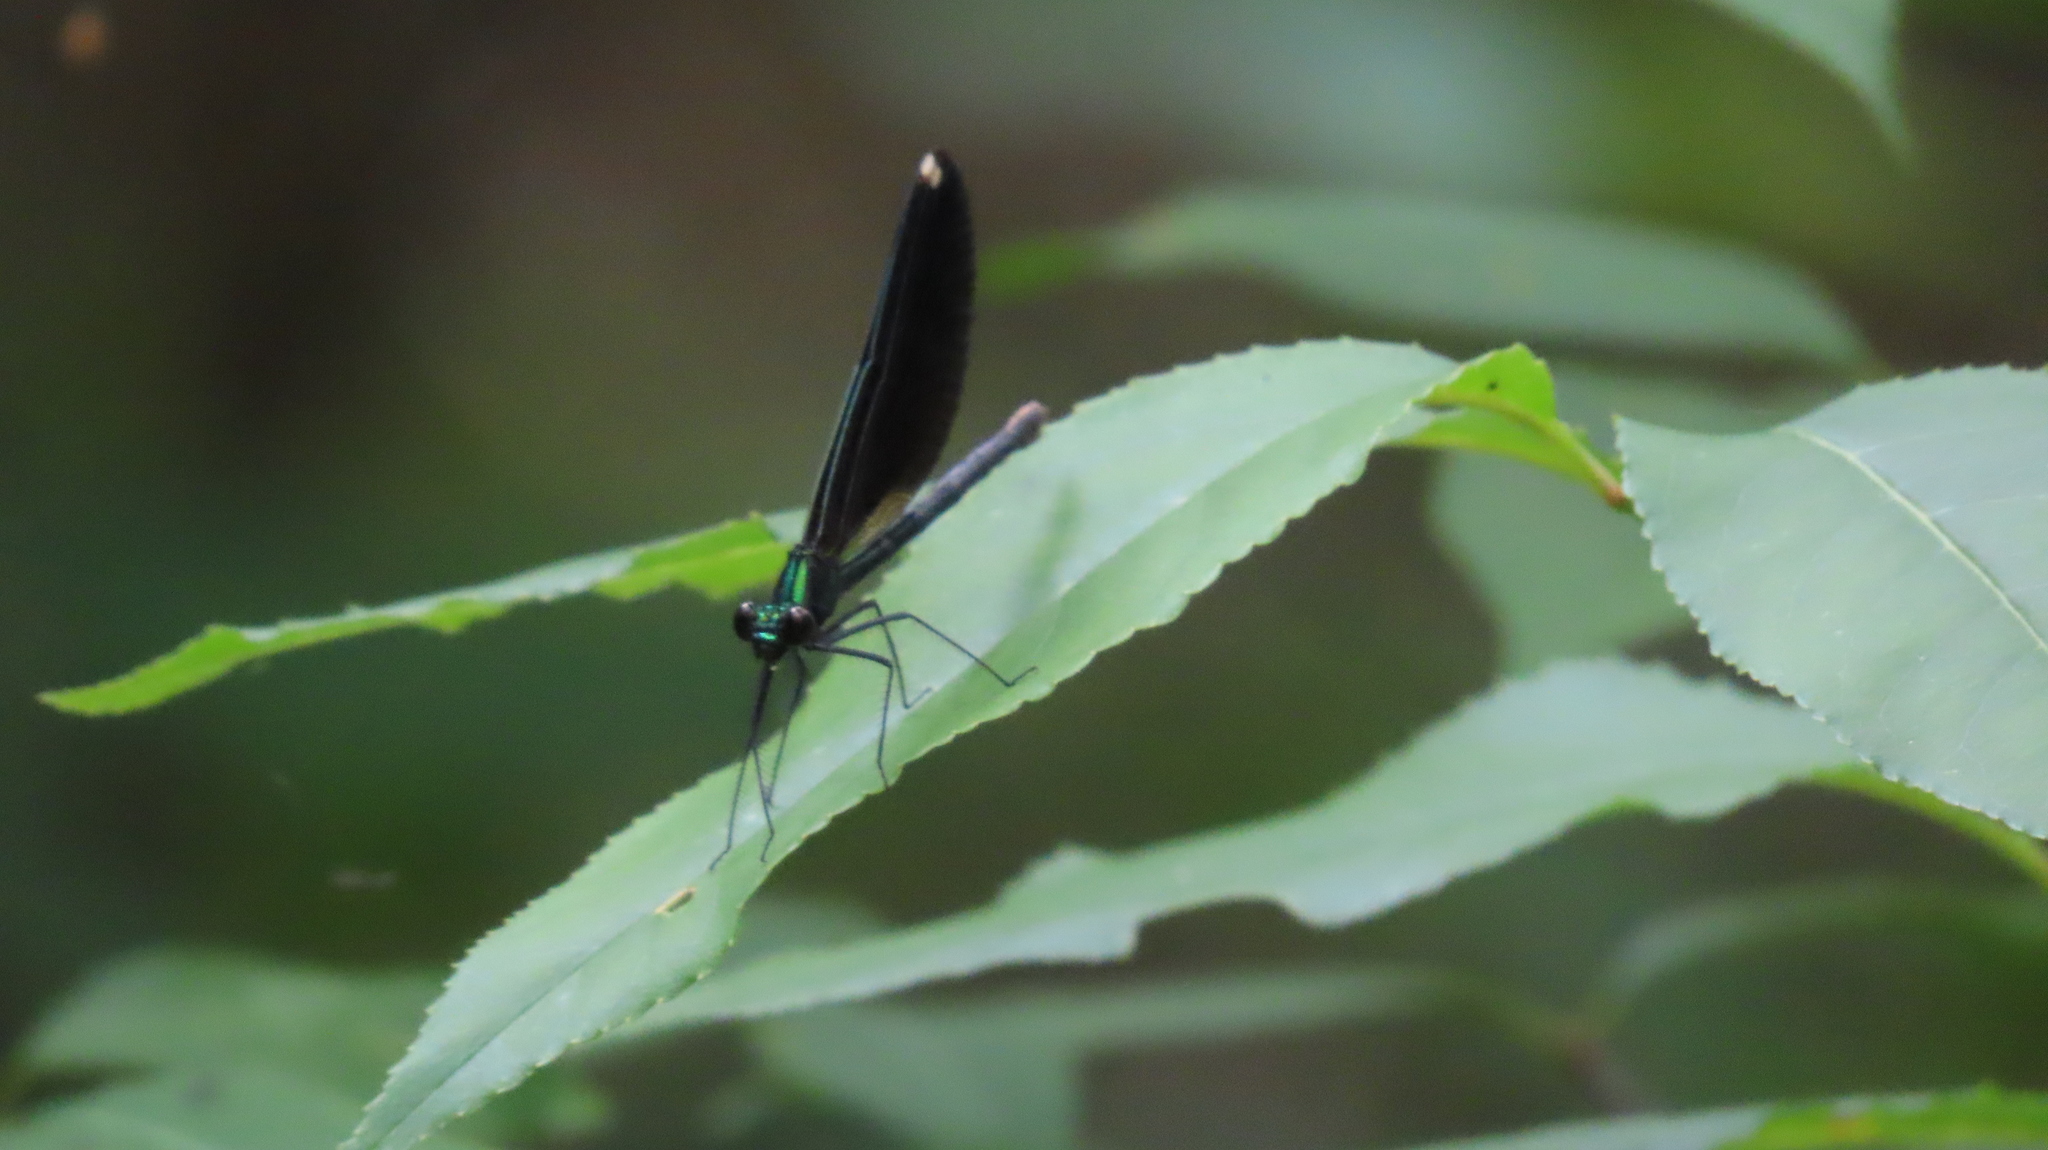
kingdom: Animalia
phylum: Arthropoda
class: Insecta
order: Odonata
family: Calopterygidae
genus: Calopteryx
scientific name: Calopteryx maculata
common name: Ebony jewelwing
